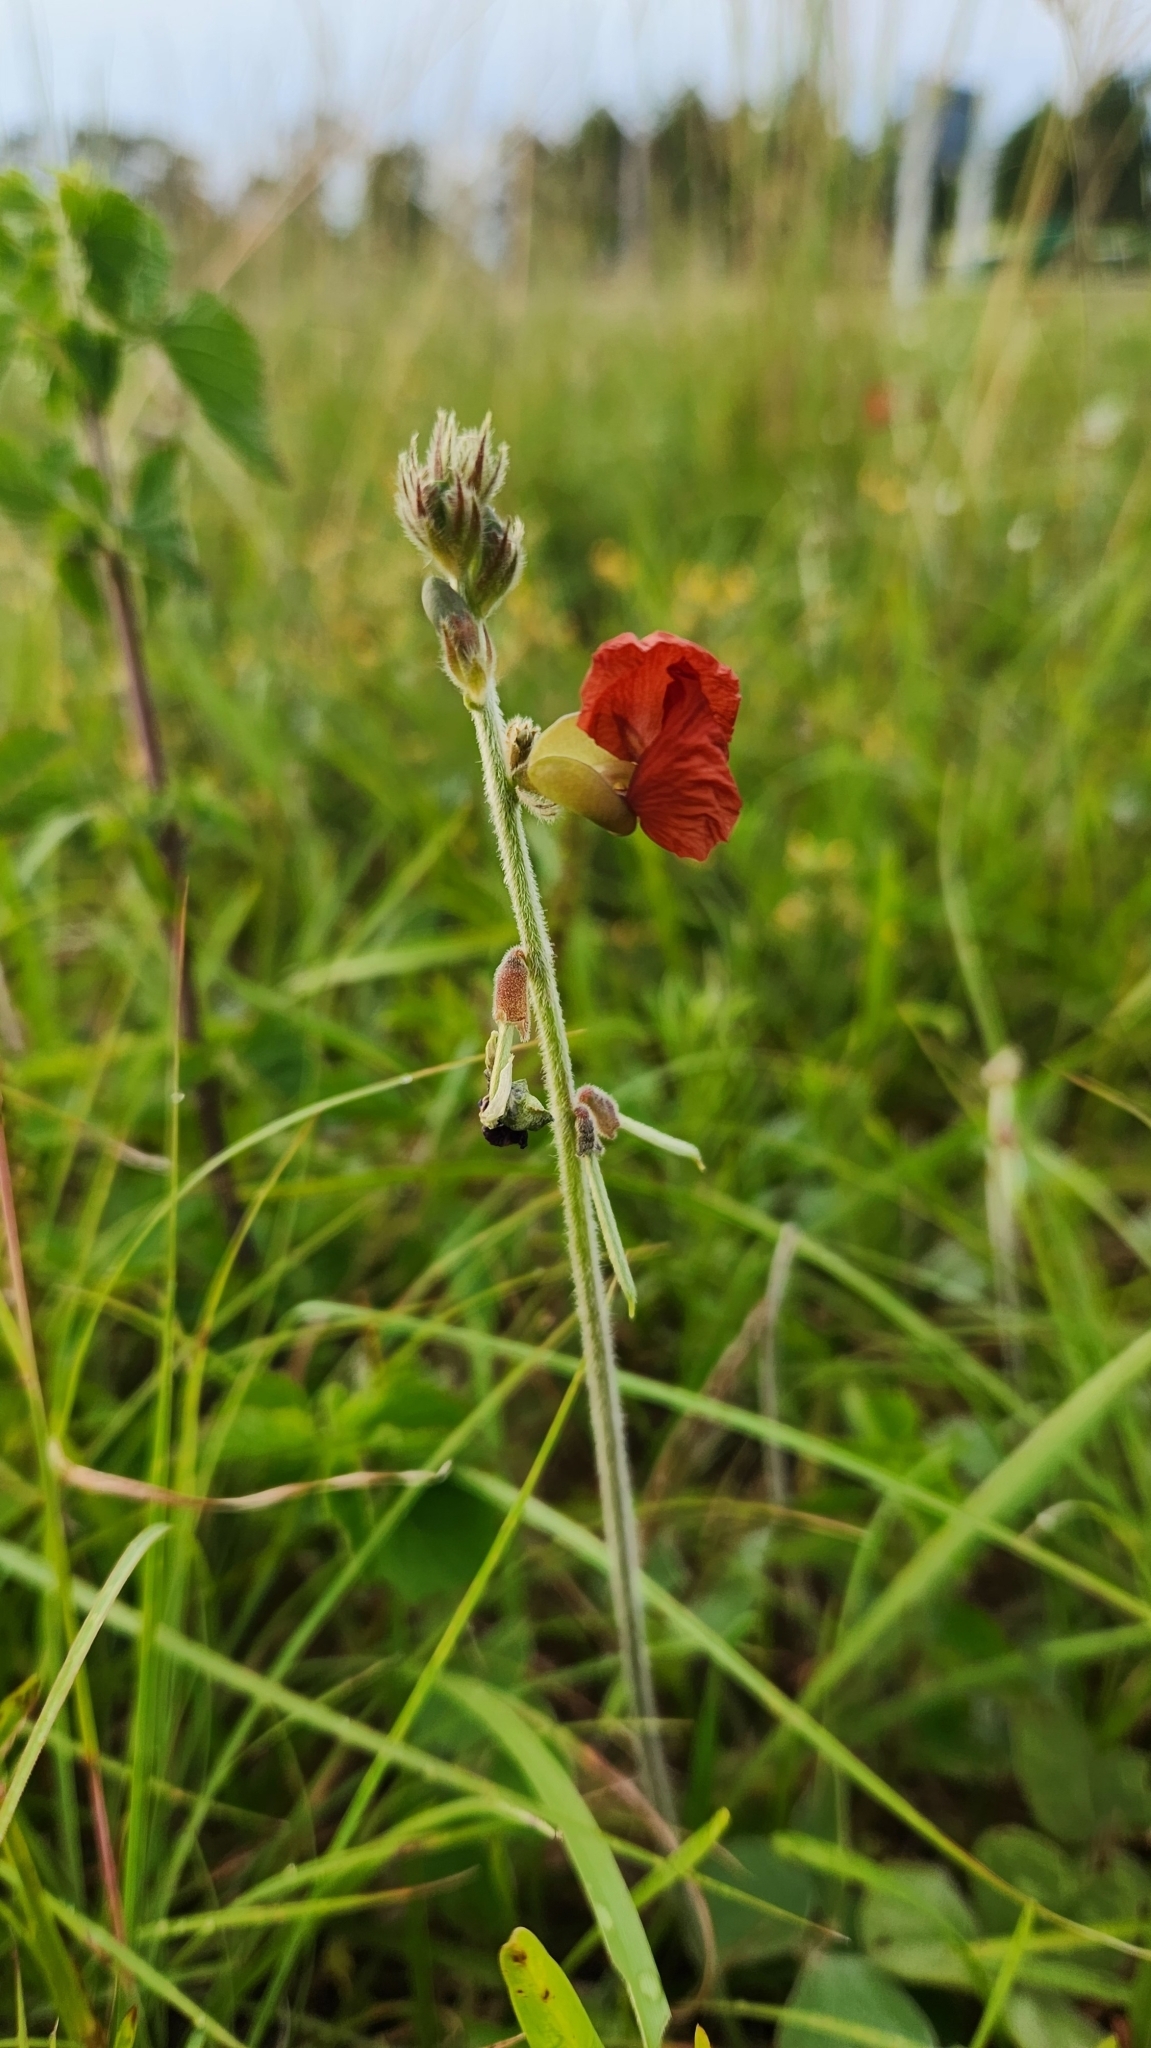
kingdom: Plantae
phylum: Tracheophyta
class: Magnoliopsida
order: Fabales
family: Fabaceae
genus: Macroptilium
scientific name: Macroptilium erythroloma
